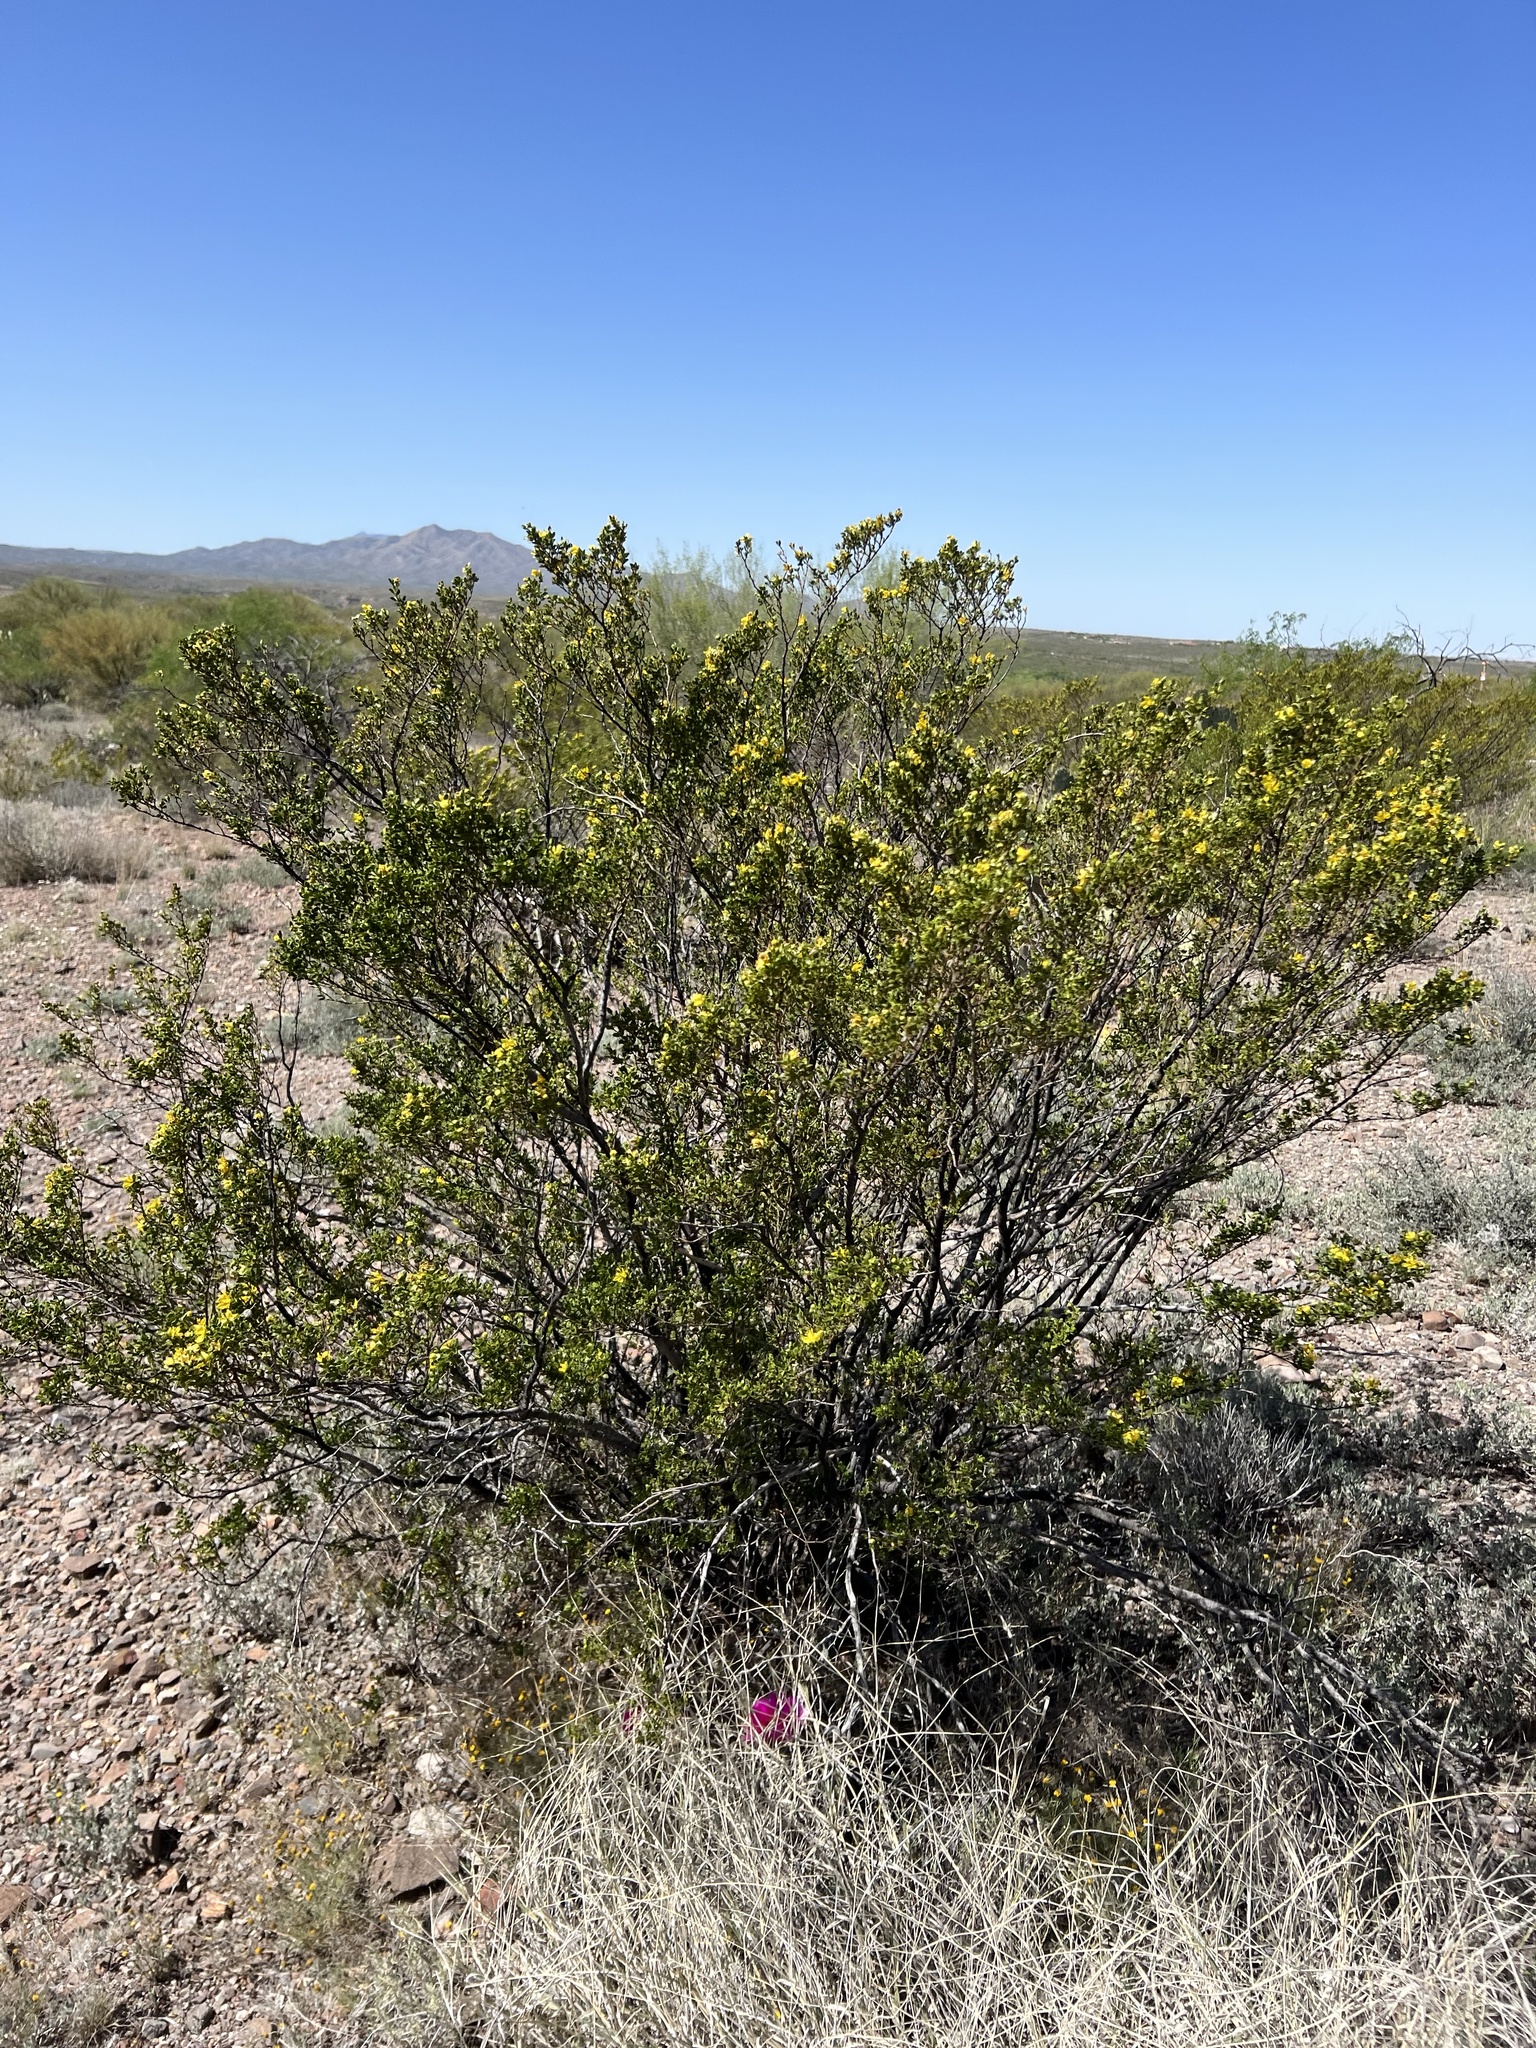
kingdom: Plantae
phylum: Tracheophyta
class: Magnoliopsida
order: Zygophyllales
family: Zygophyllaceae
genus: Larrea
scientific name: Larrea tridentata
